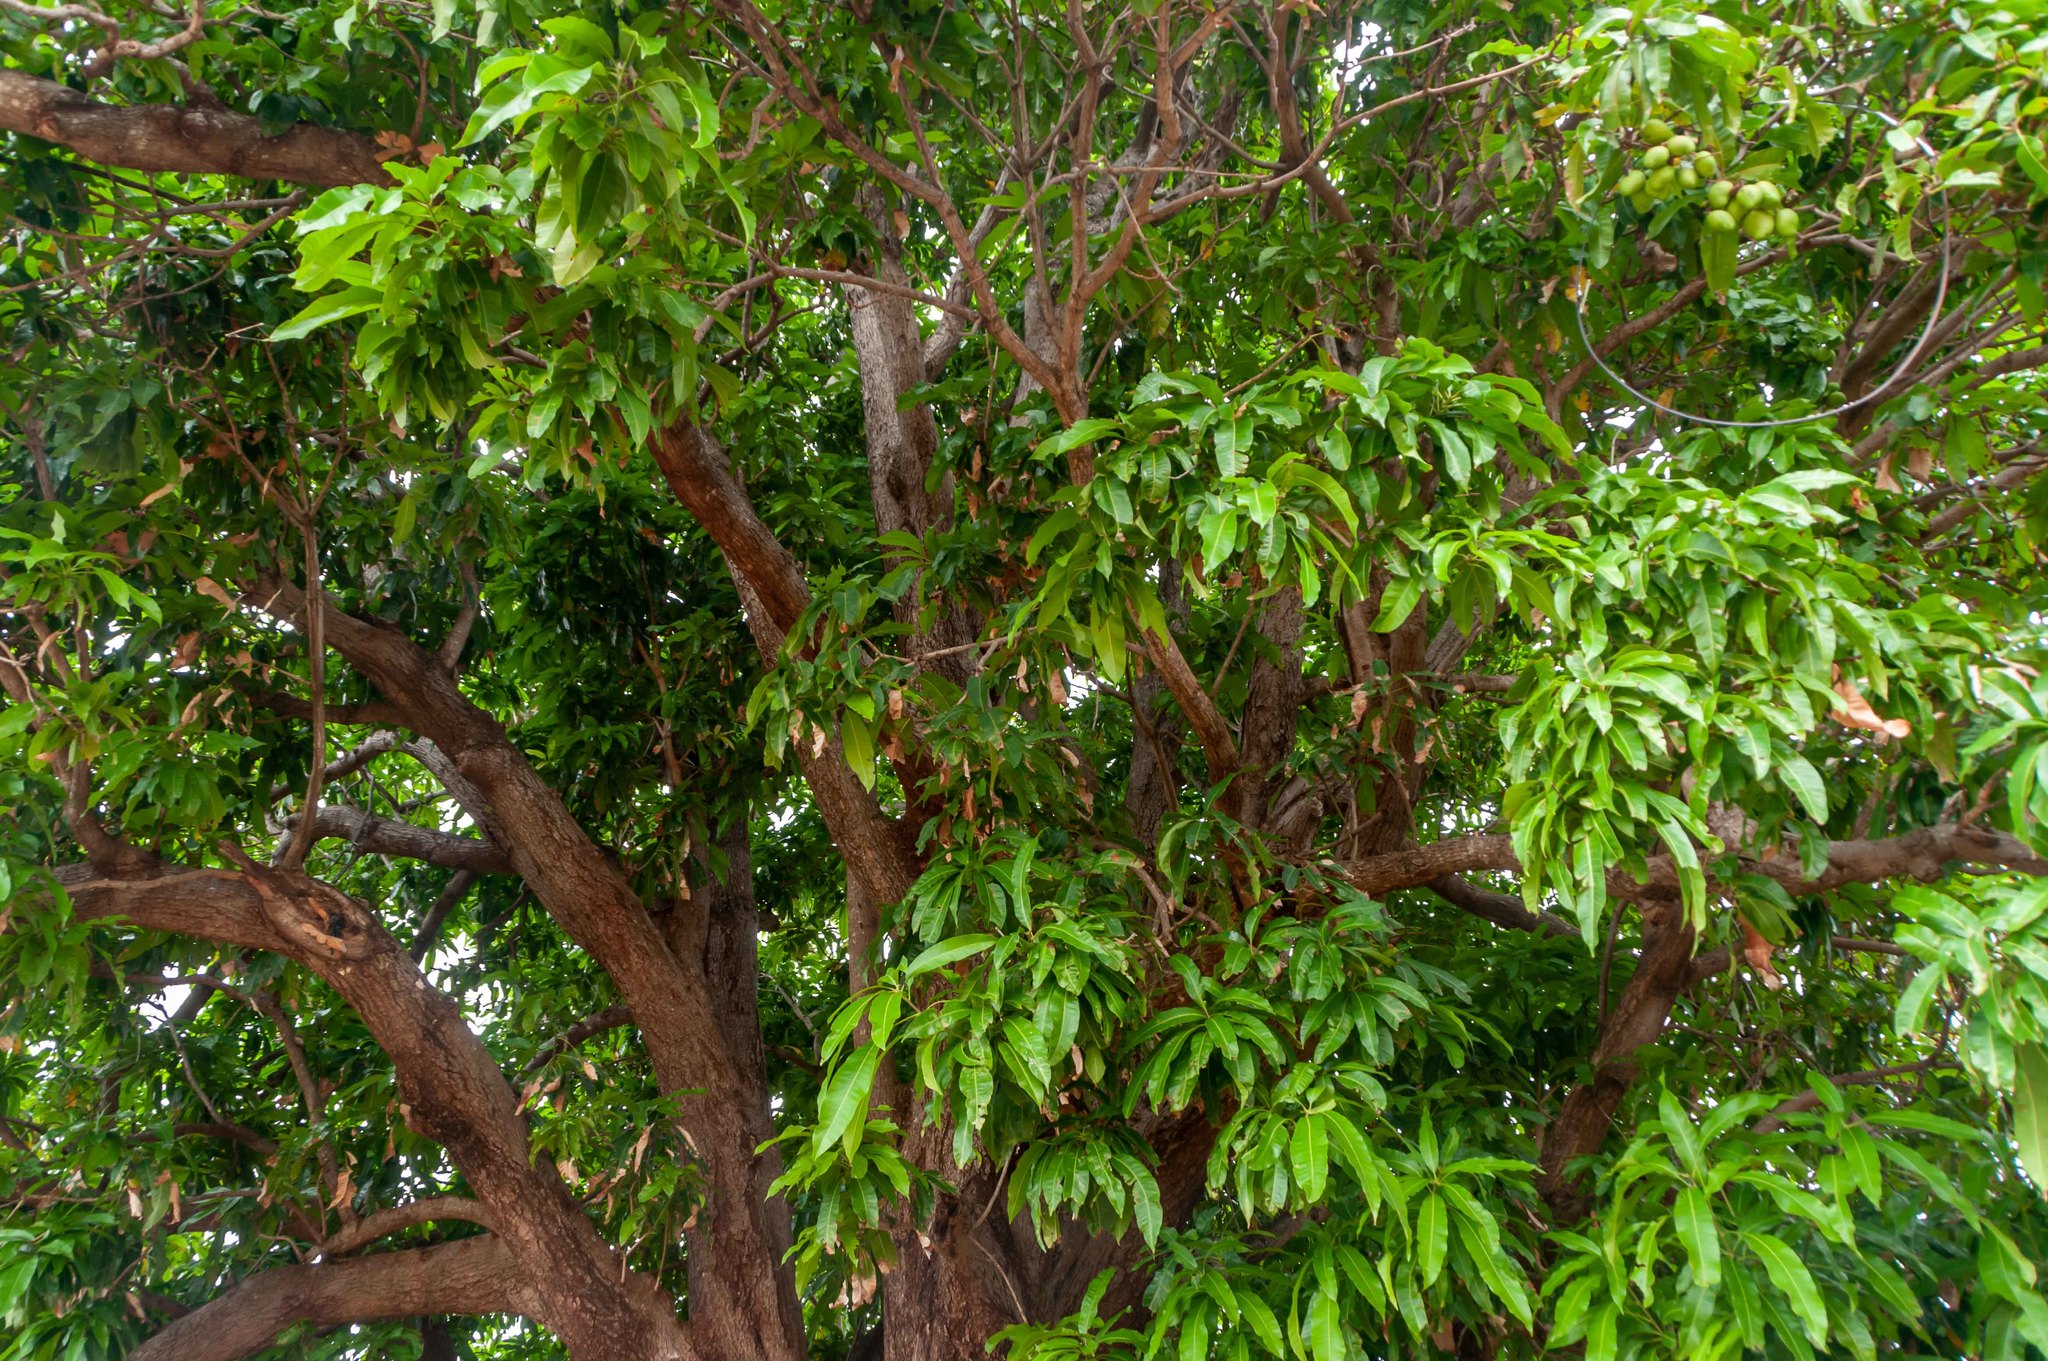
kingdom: Plantae
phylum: Tracheophyta
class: Magnoliopsida
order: Sapindales
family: Anacardiaceae
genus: Mangifera
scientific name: Mangifera indica
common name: Mango
